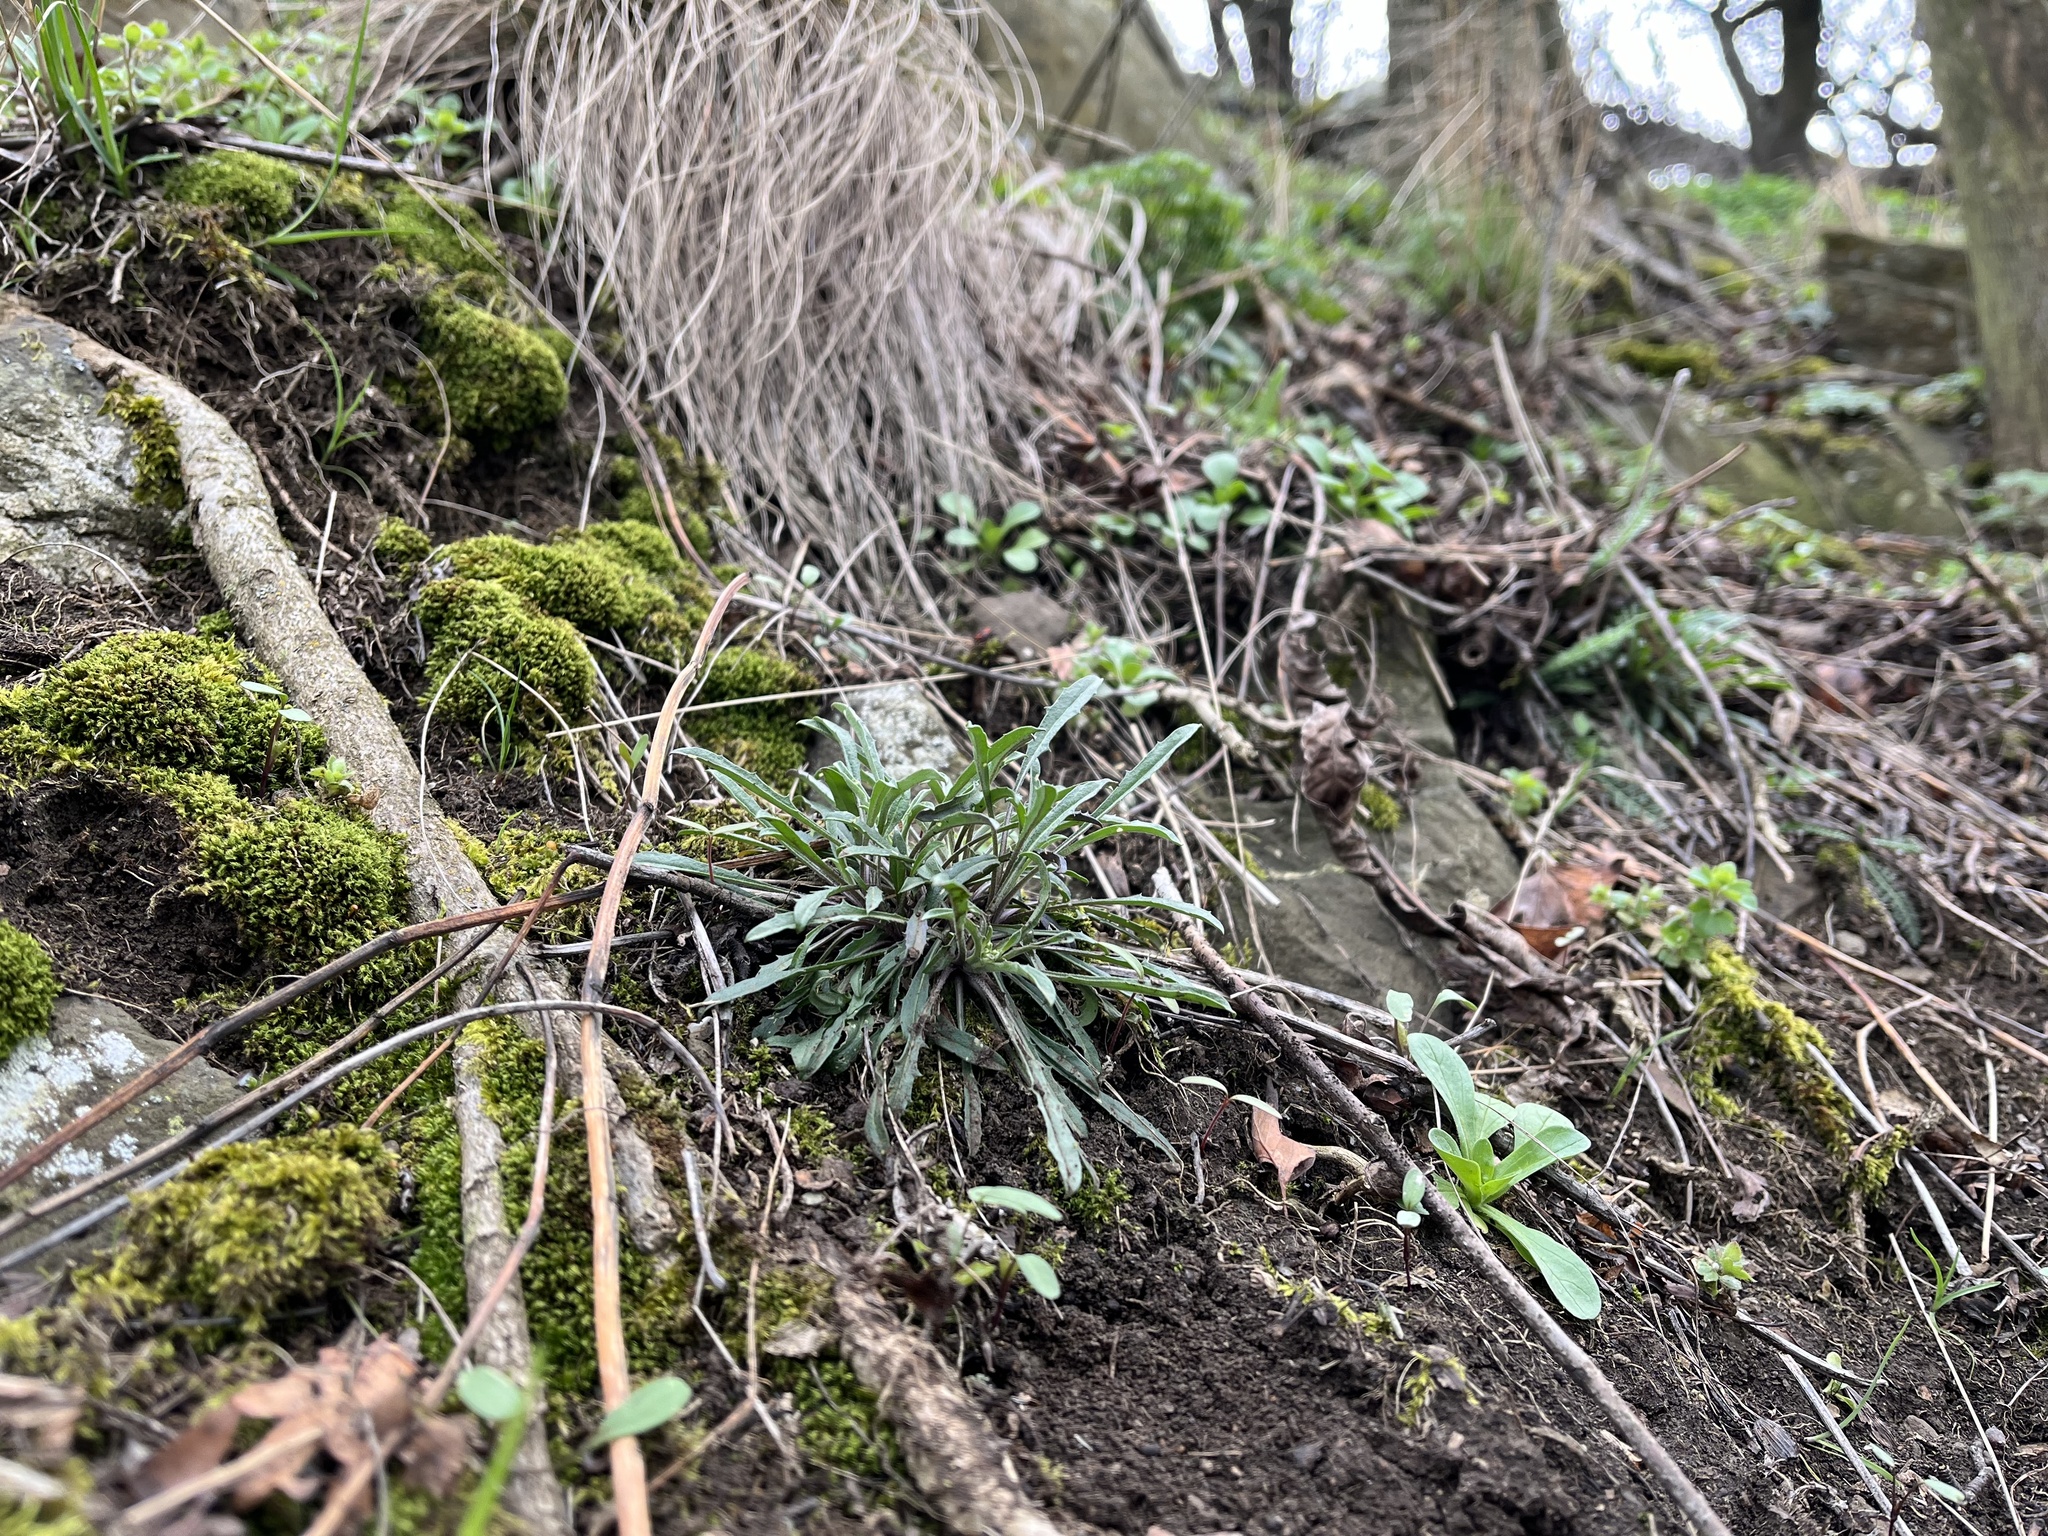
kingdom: Plantae
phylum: Tracheophyta
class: Magnoliopsida
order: Brassicales
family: Brassicaceae
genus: Erysimum
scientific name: Erysimum crepidifolium
